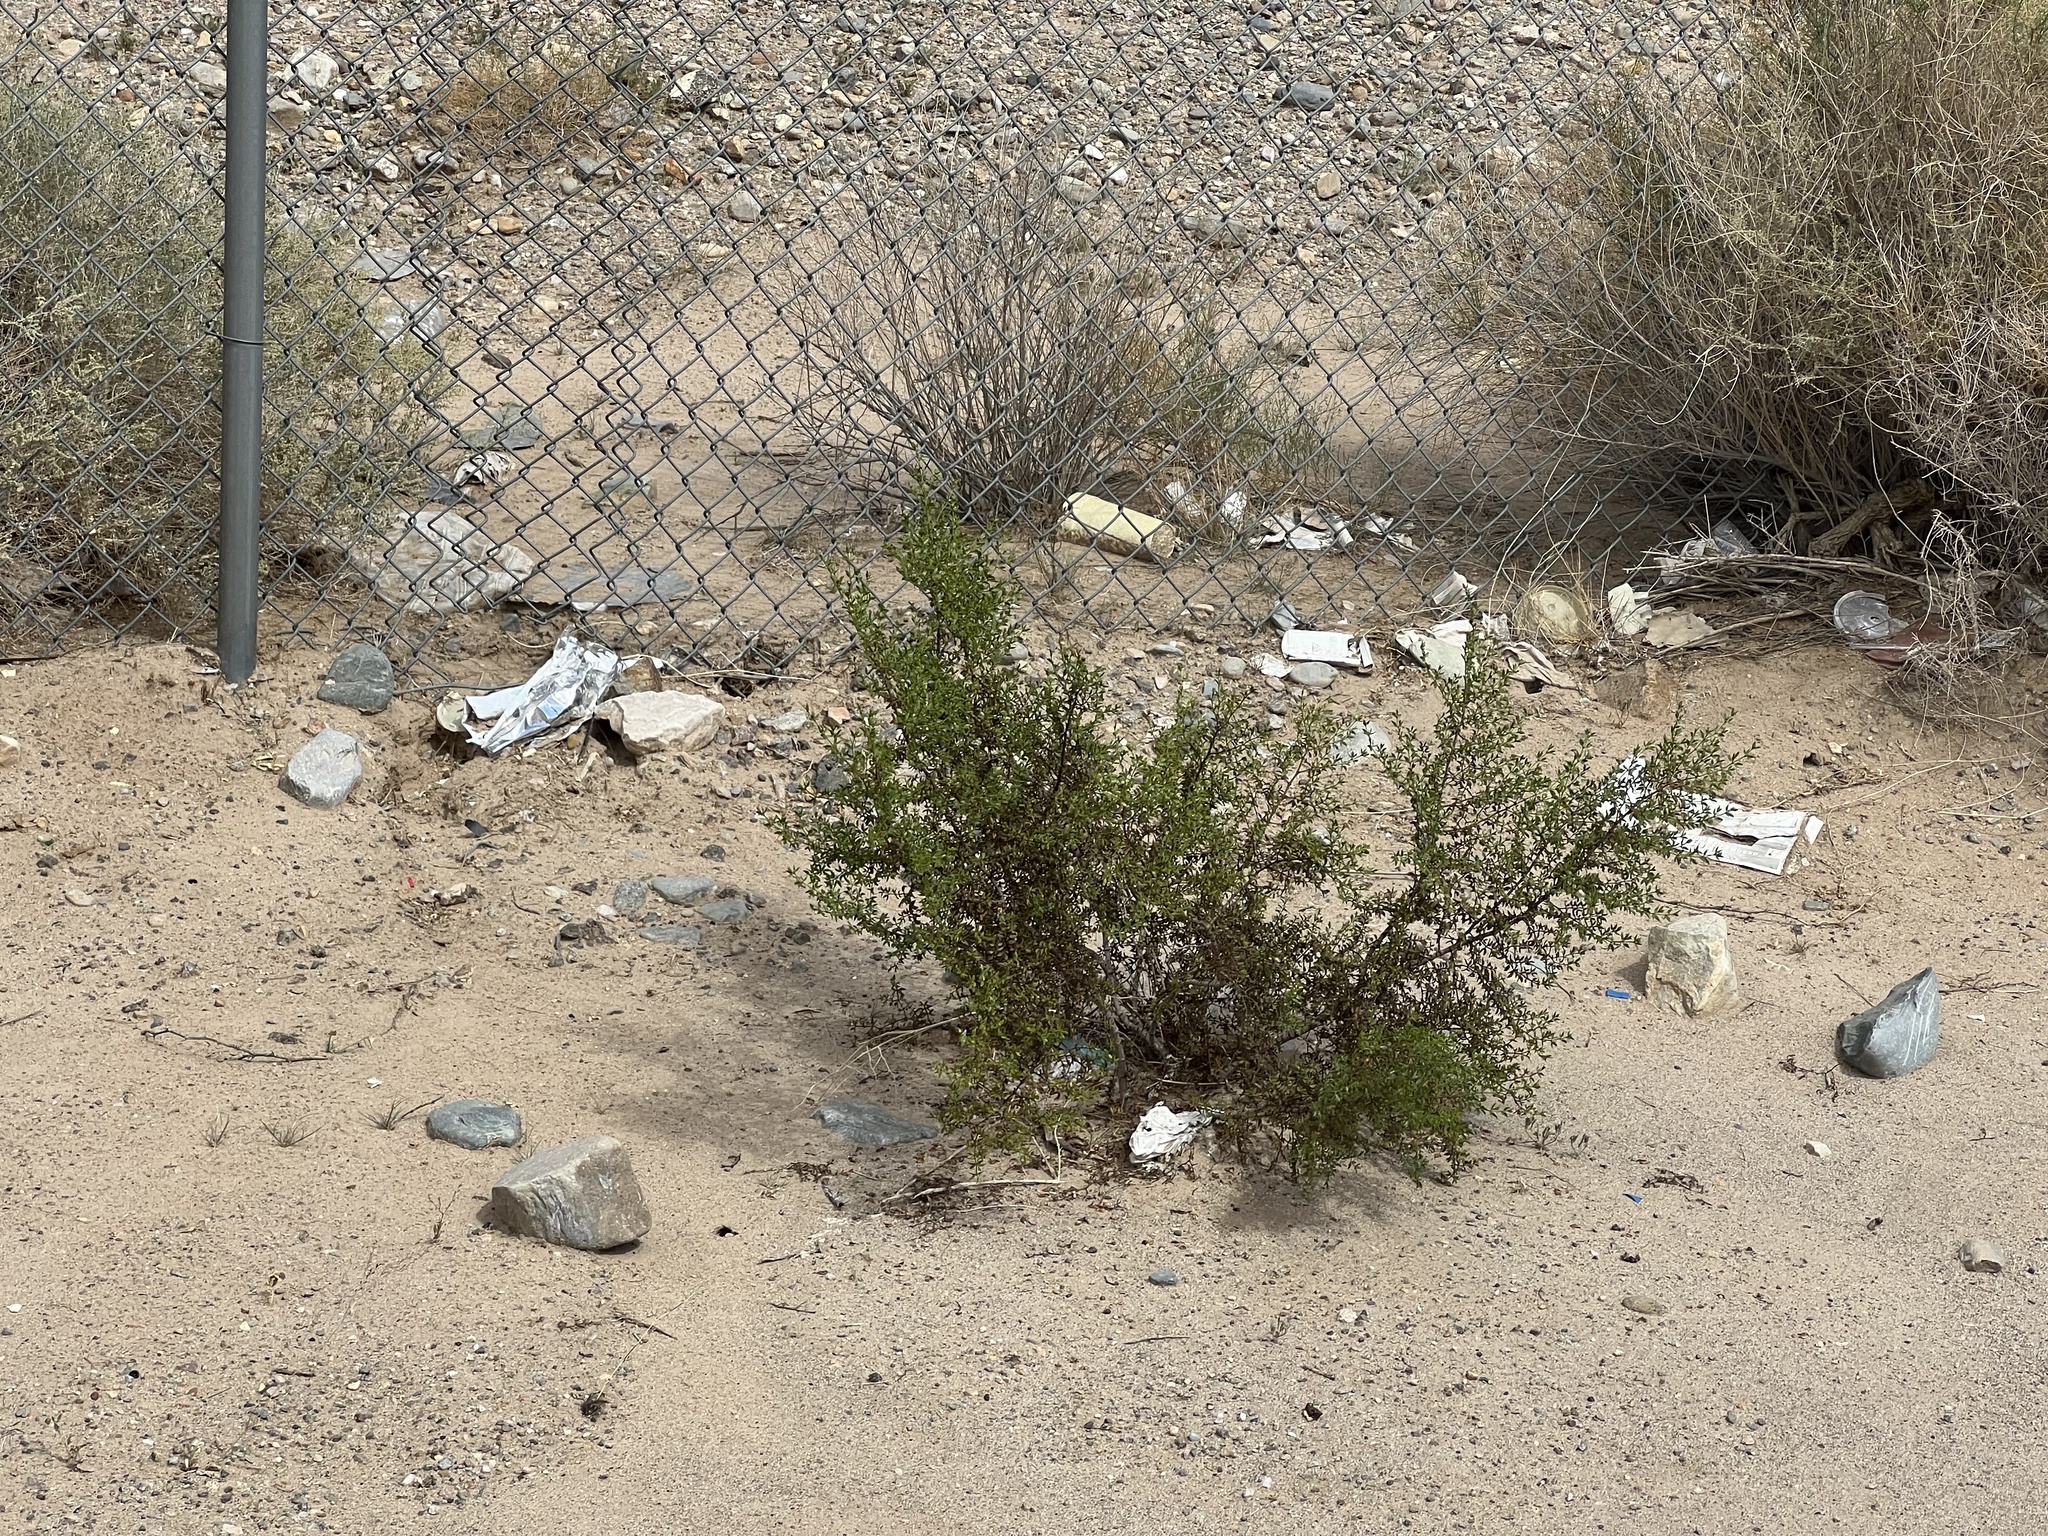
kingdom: Plantae
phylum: Tracheophyta
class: Magnoliopsida
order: Zygophyllales
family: Zygophyllaceae
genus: Larrea
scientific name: Larrea tridentata
